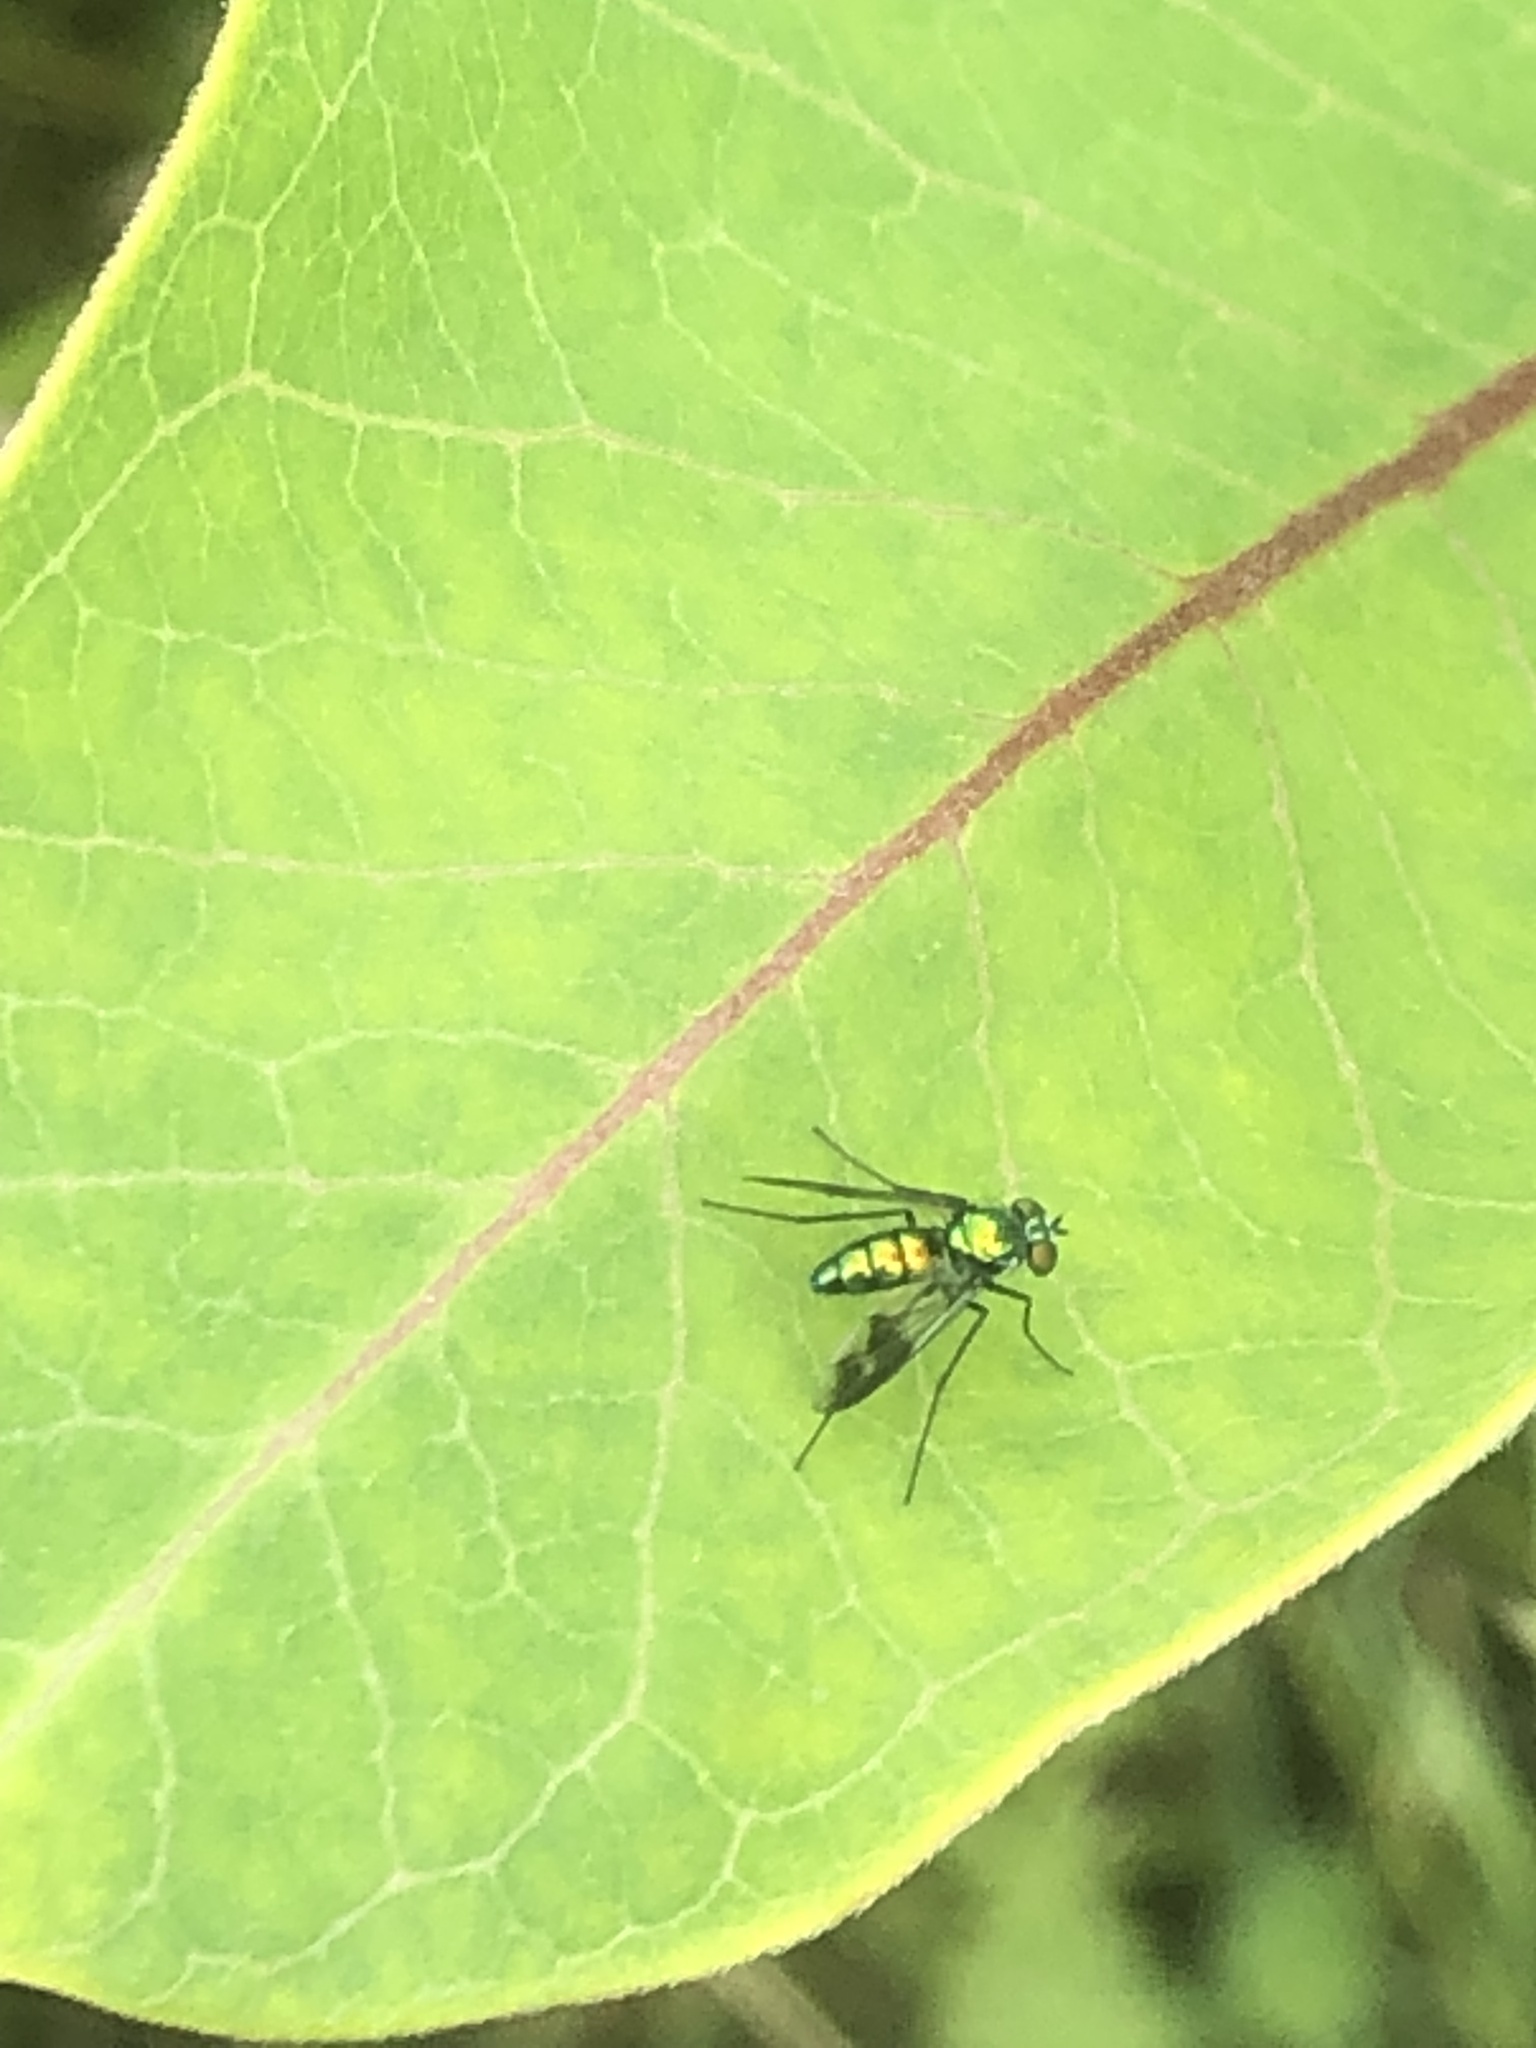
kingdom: Animalia
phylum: Arthropoda
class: Insecta
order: Diptera
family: Dolichopodidae
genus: Condylostylus
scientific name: Condylostylus patibulatus
